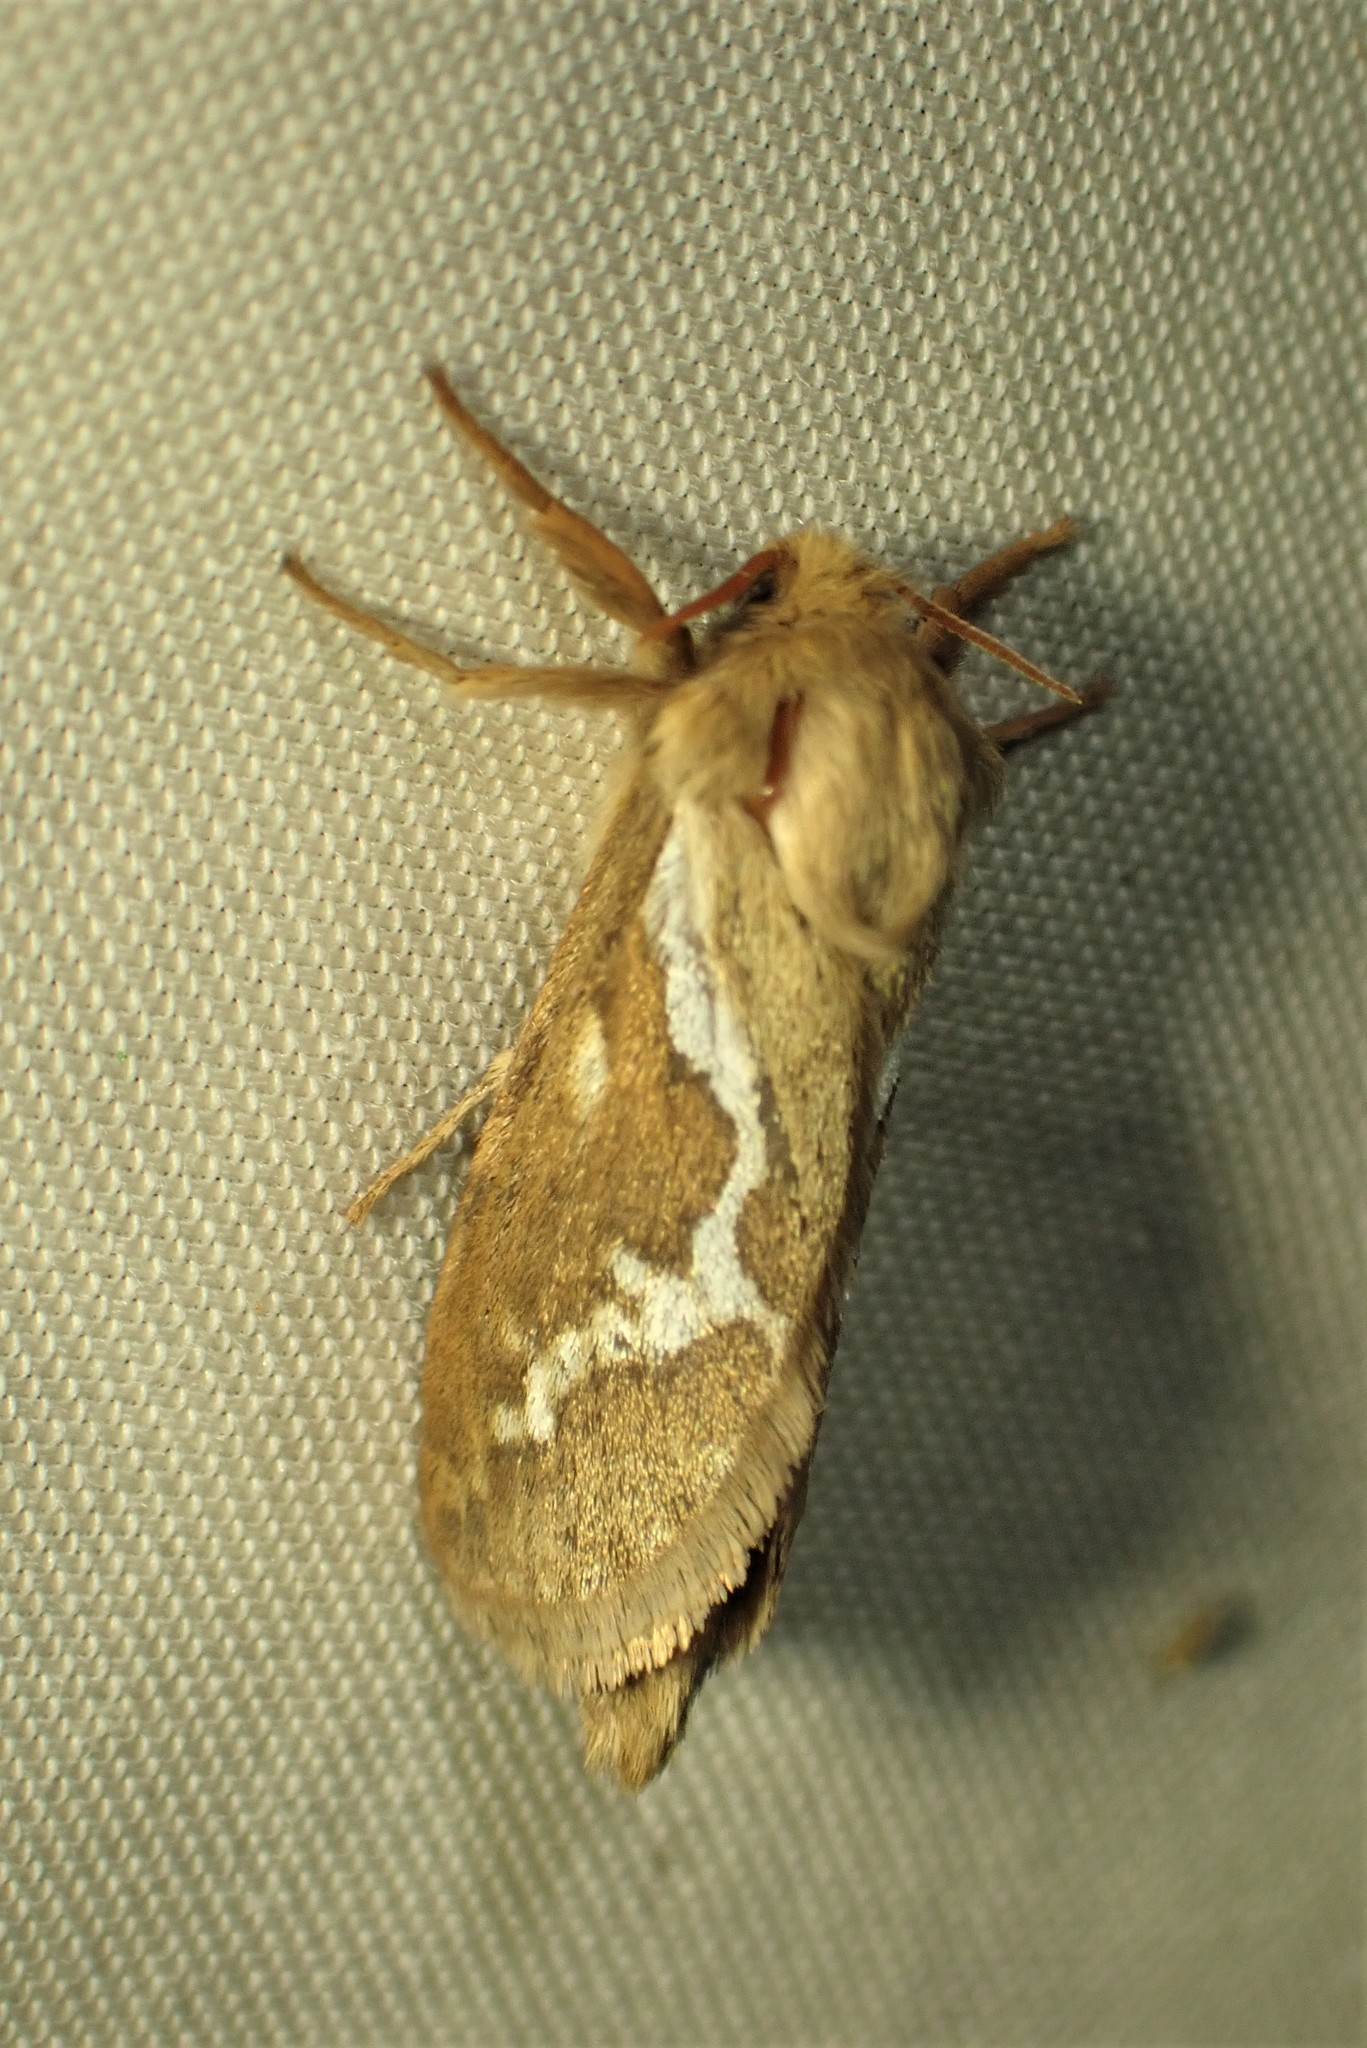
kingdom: Animalia
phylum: Arthropoda
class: Insecta
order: Lepidoptera
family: Hepialidae
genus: Korscheltellus
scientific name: Korscheltellus lupulina
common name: Common swift
